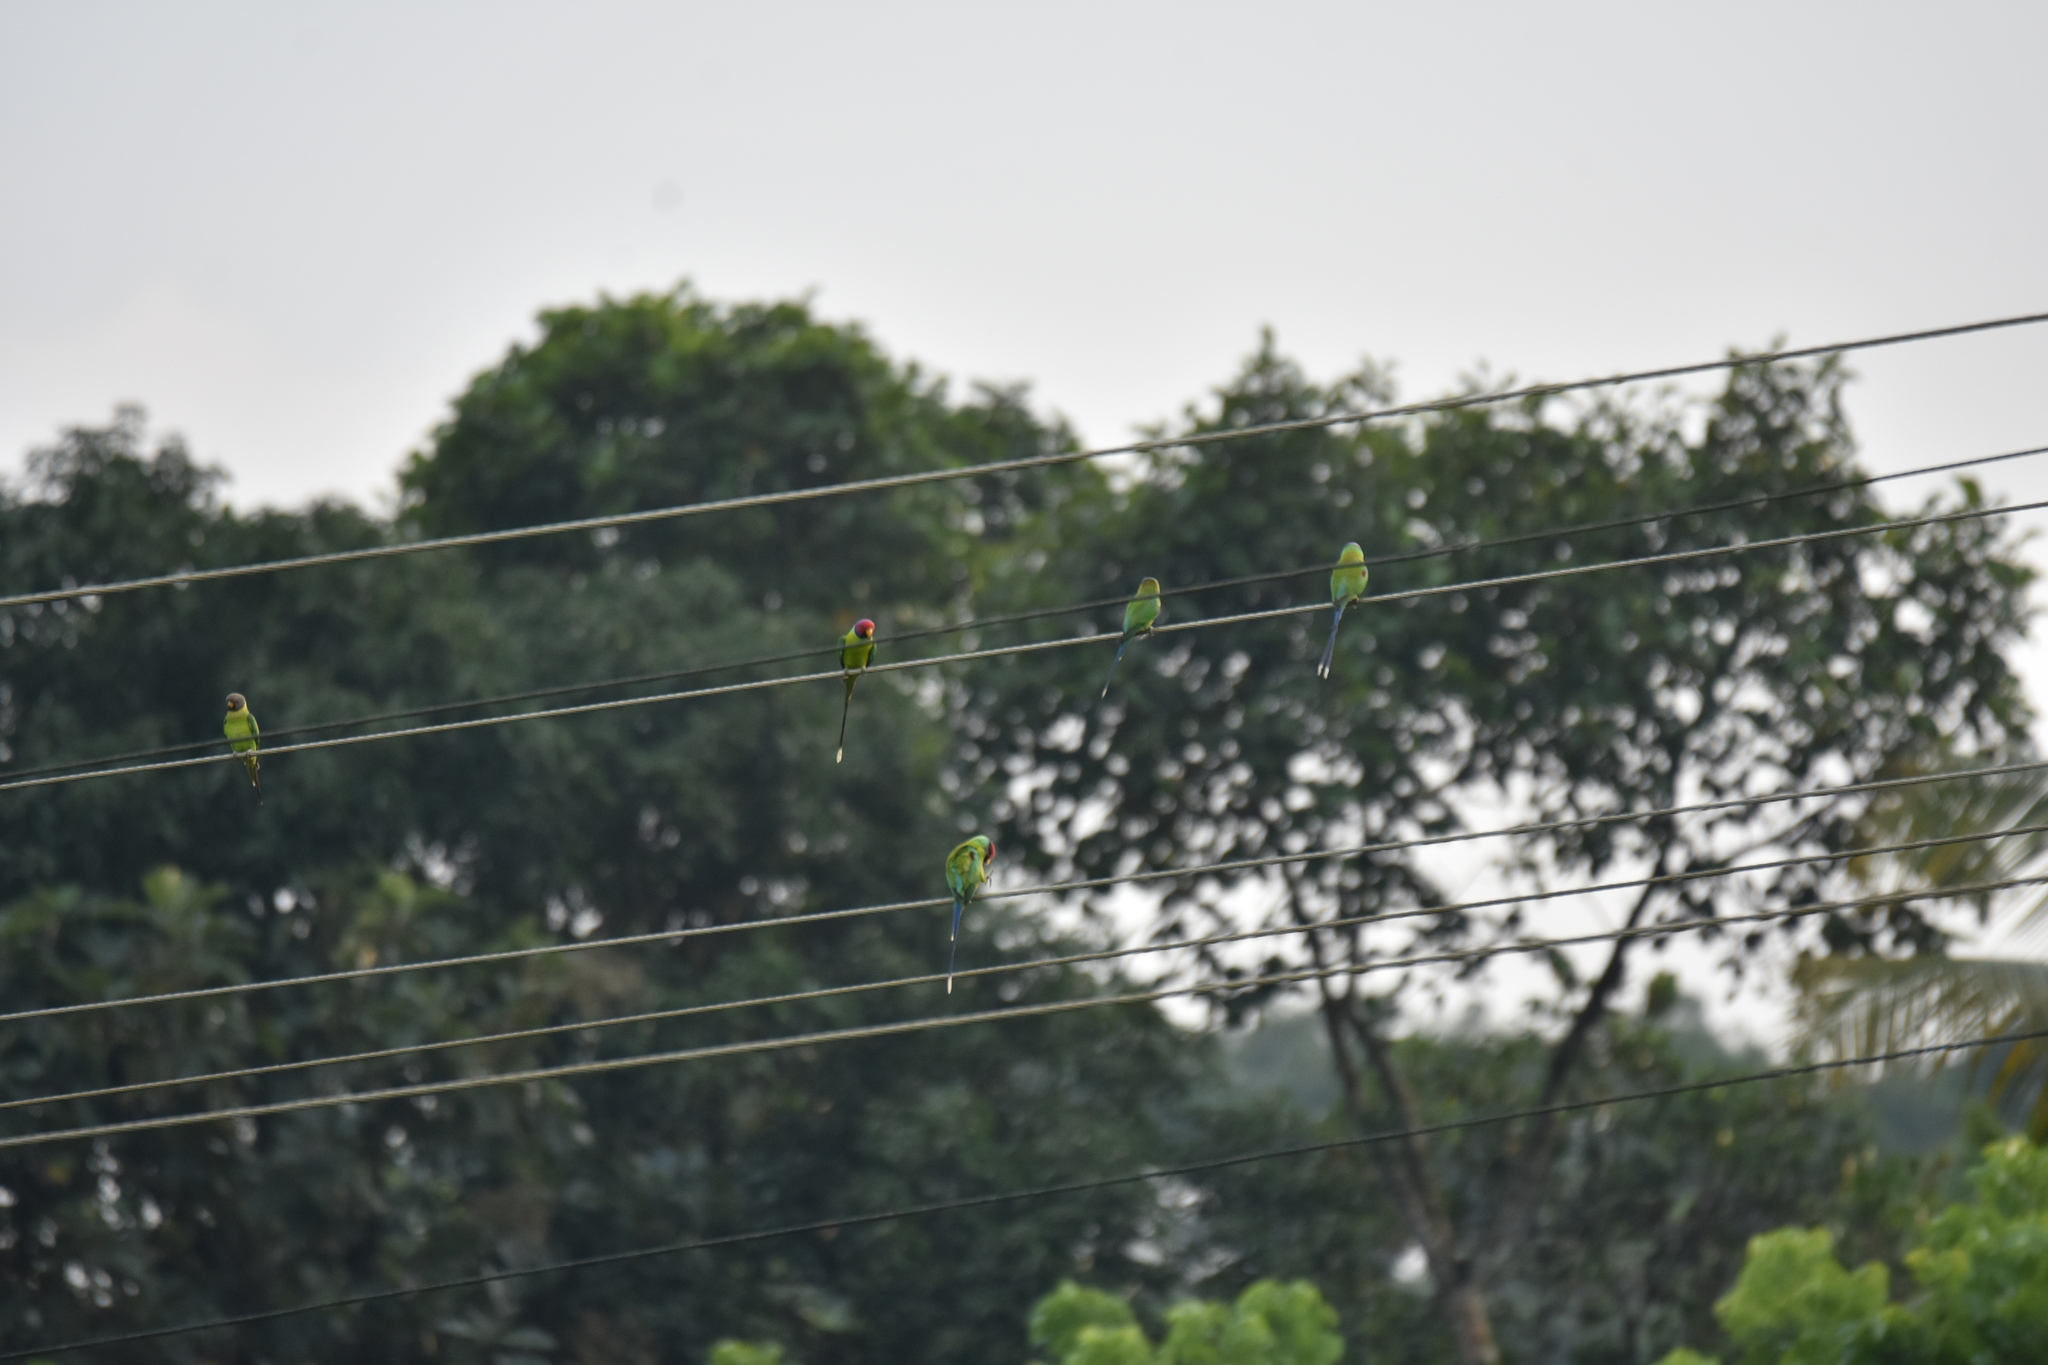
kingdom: Animalia
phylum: Chordata
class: Aves
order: Psittaciformes
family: Psittacidae
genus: Psittacula
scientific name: Psittacula cyanocephala
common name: Plum-headed parakeet
